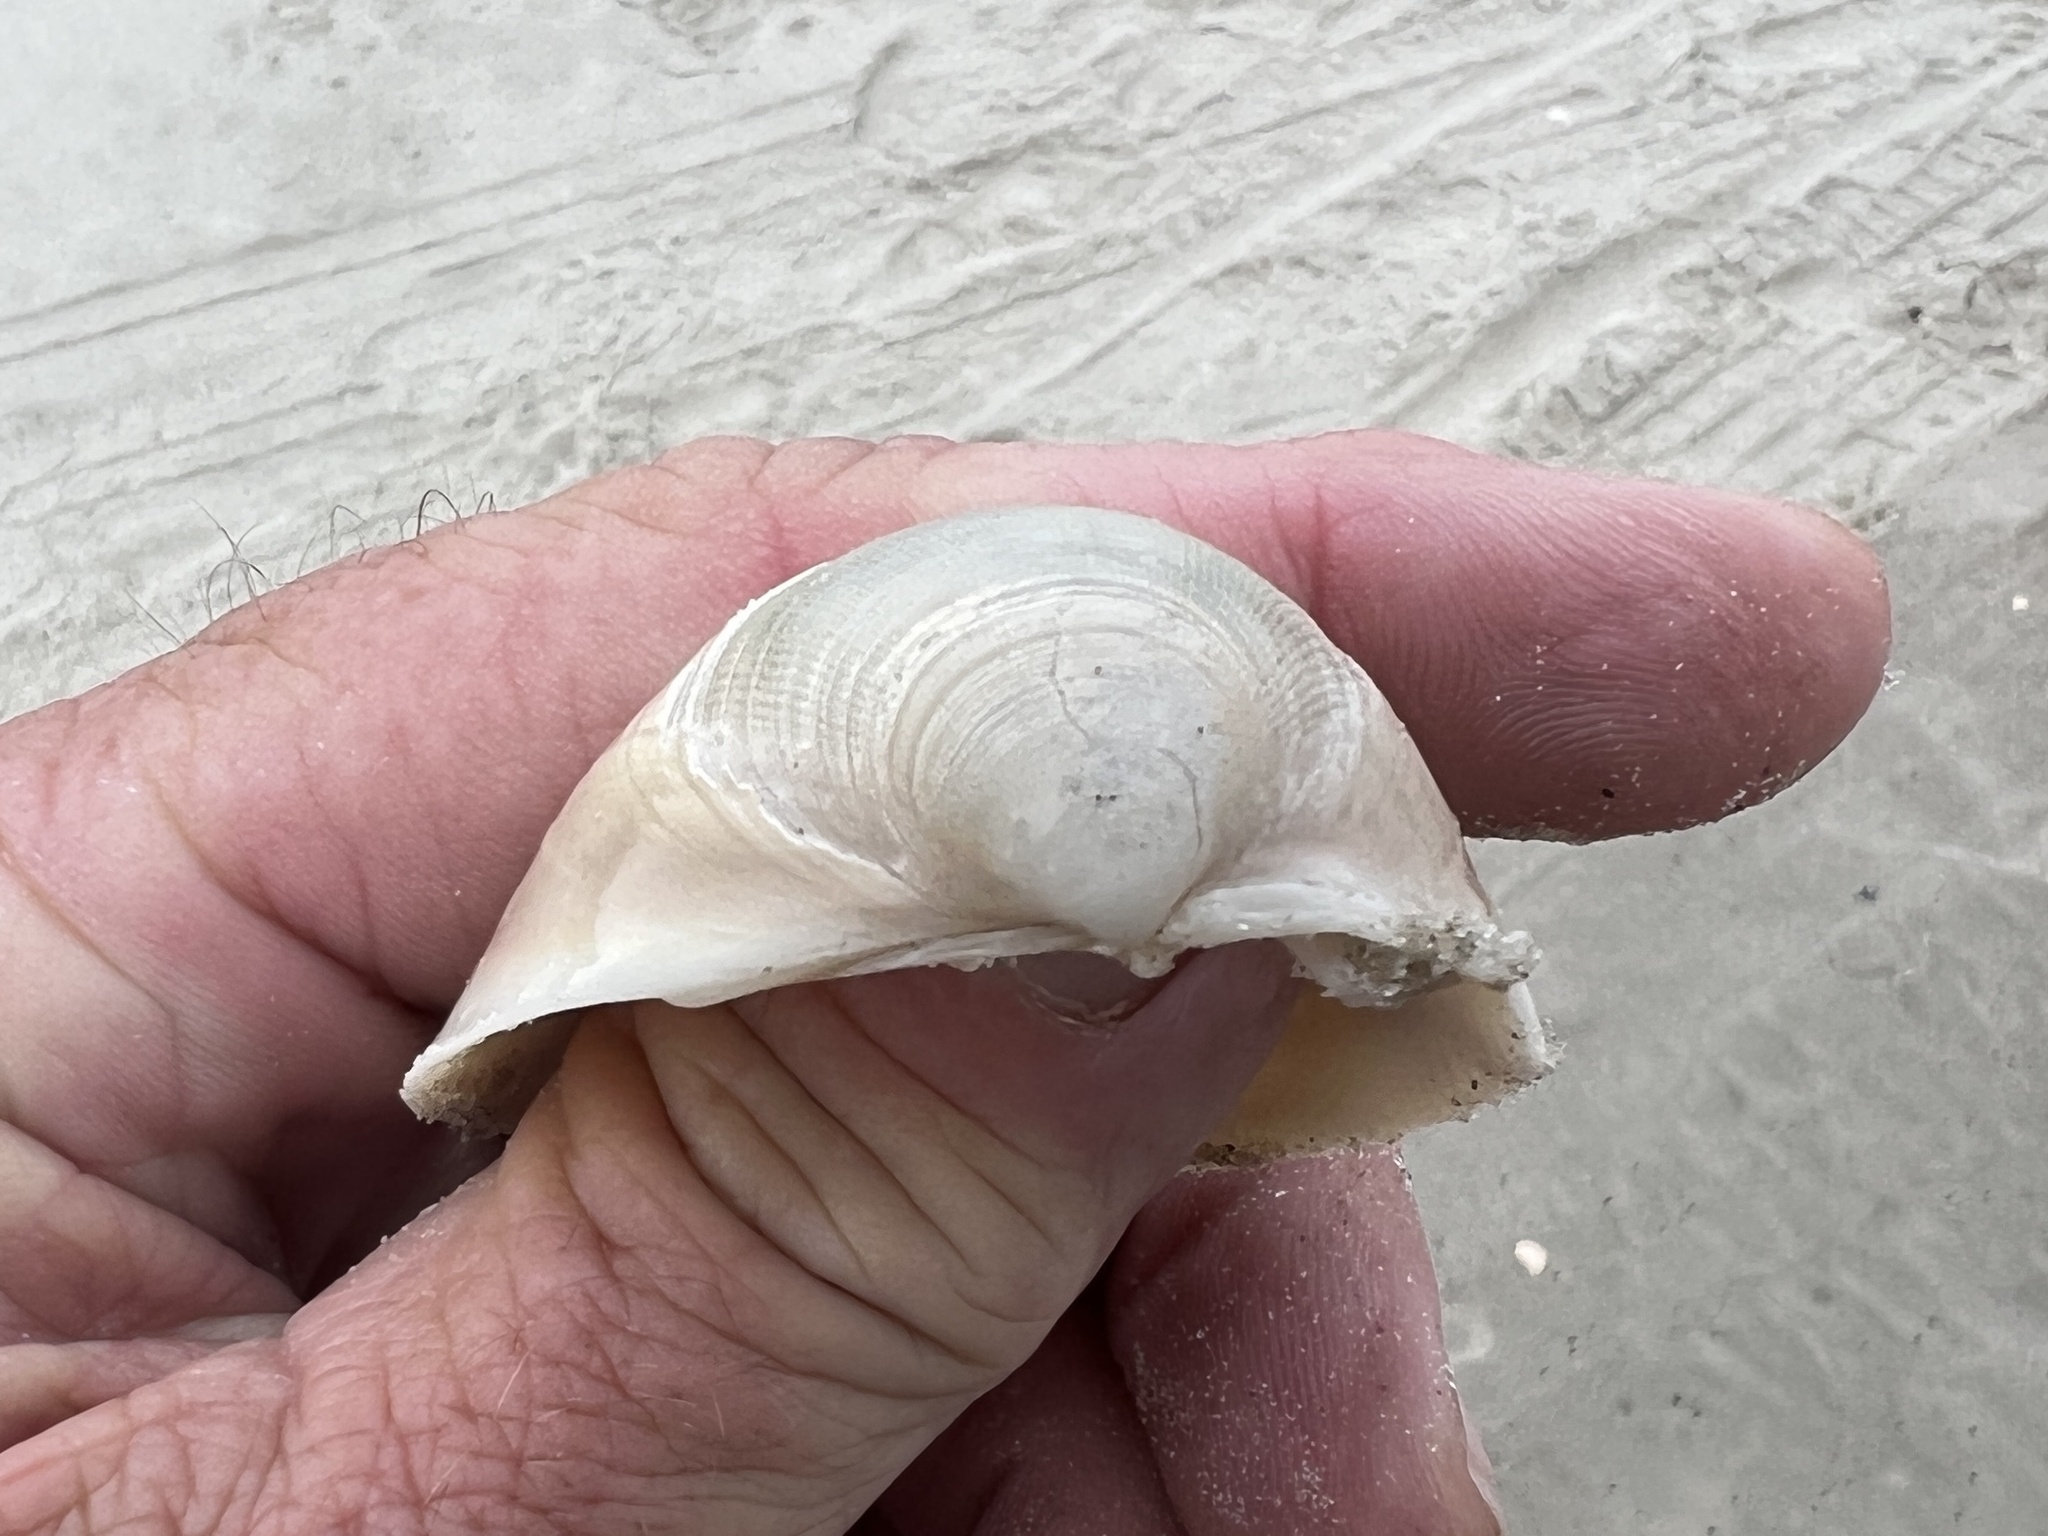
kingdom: Animalia
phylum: Mollusca
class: Bivalvia
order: Cardiida
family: Cardiidae
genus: Laevicardium
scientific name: Laevicardium serratum
